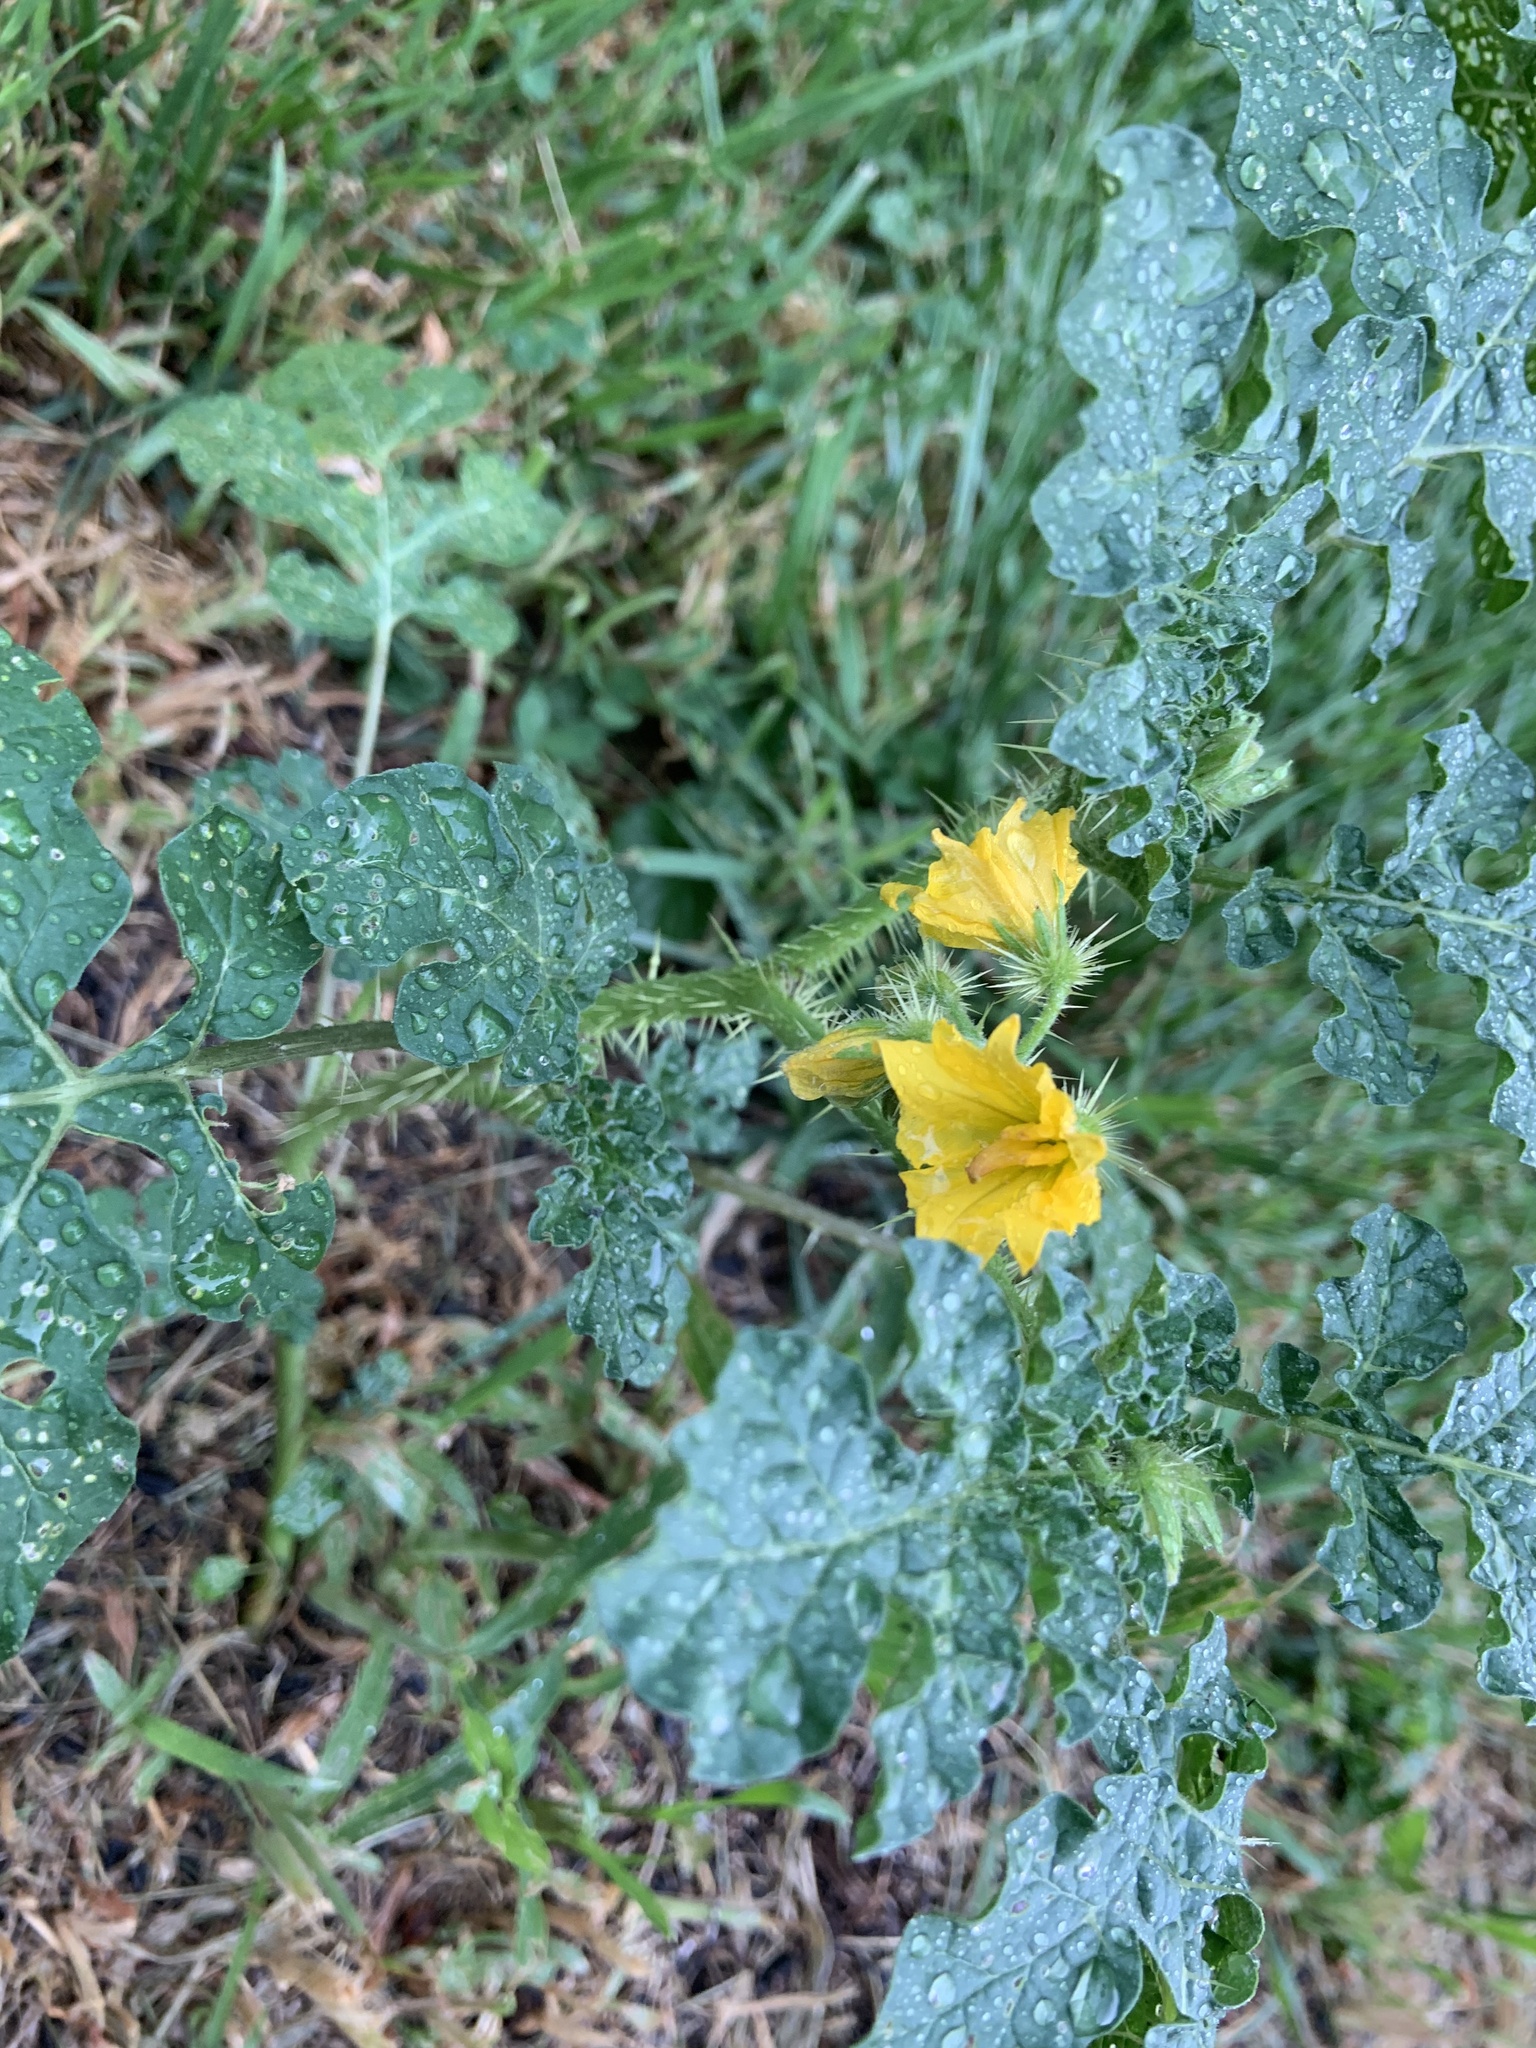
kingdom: Plantae
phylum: Tracheophyta
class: Magnoliopsida
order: Solanales
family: Solanaceae
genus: Solanum
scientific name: Solanum angustifolium
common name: Buffalobur nightshade
